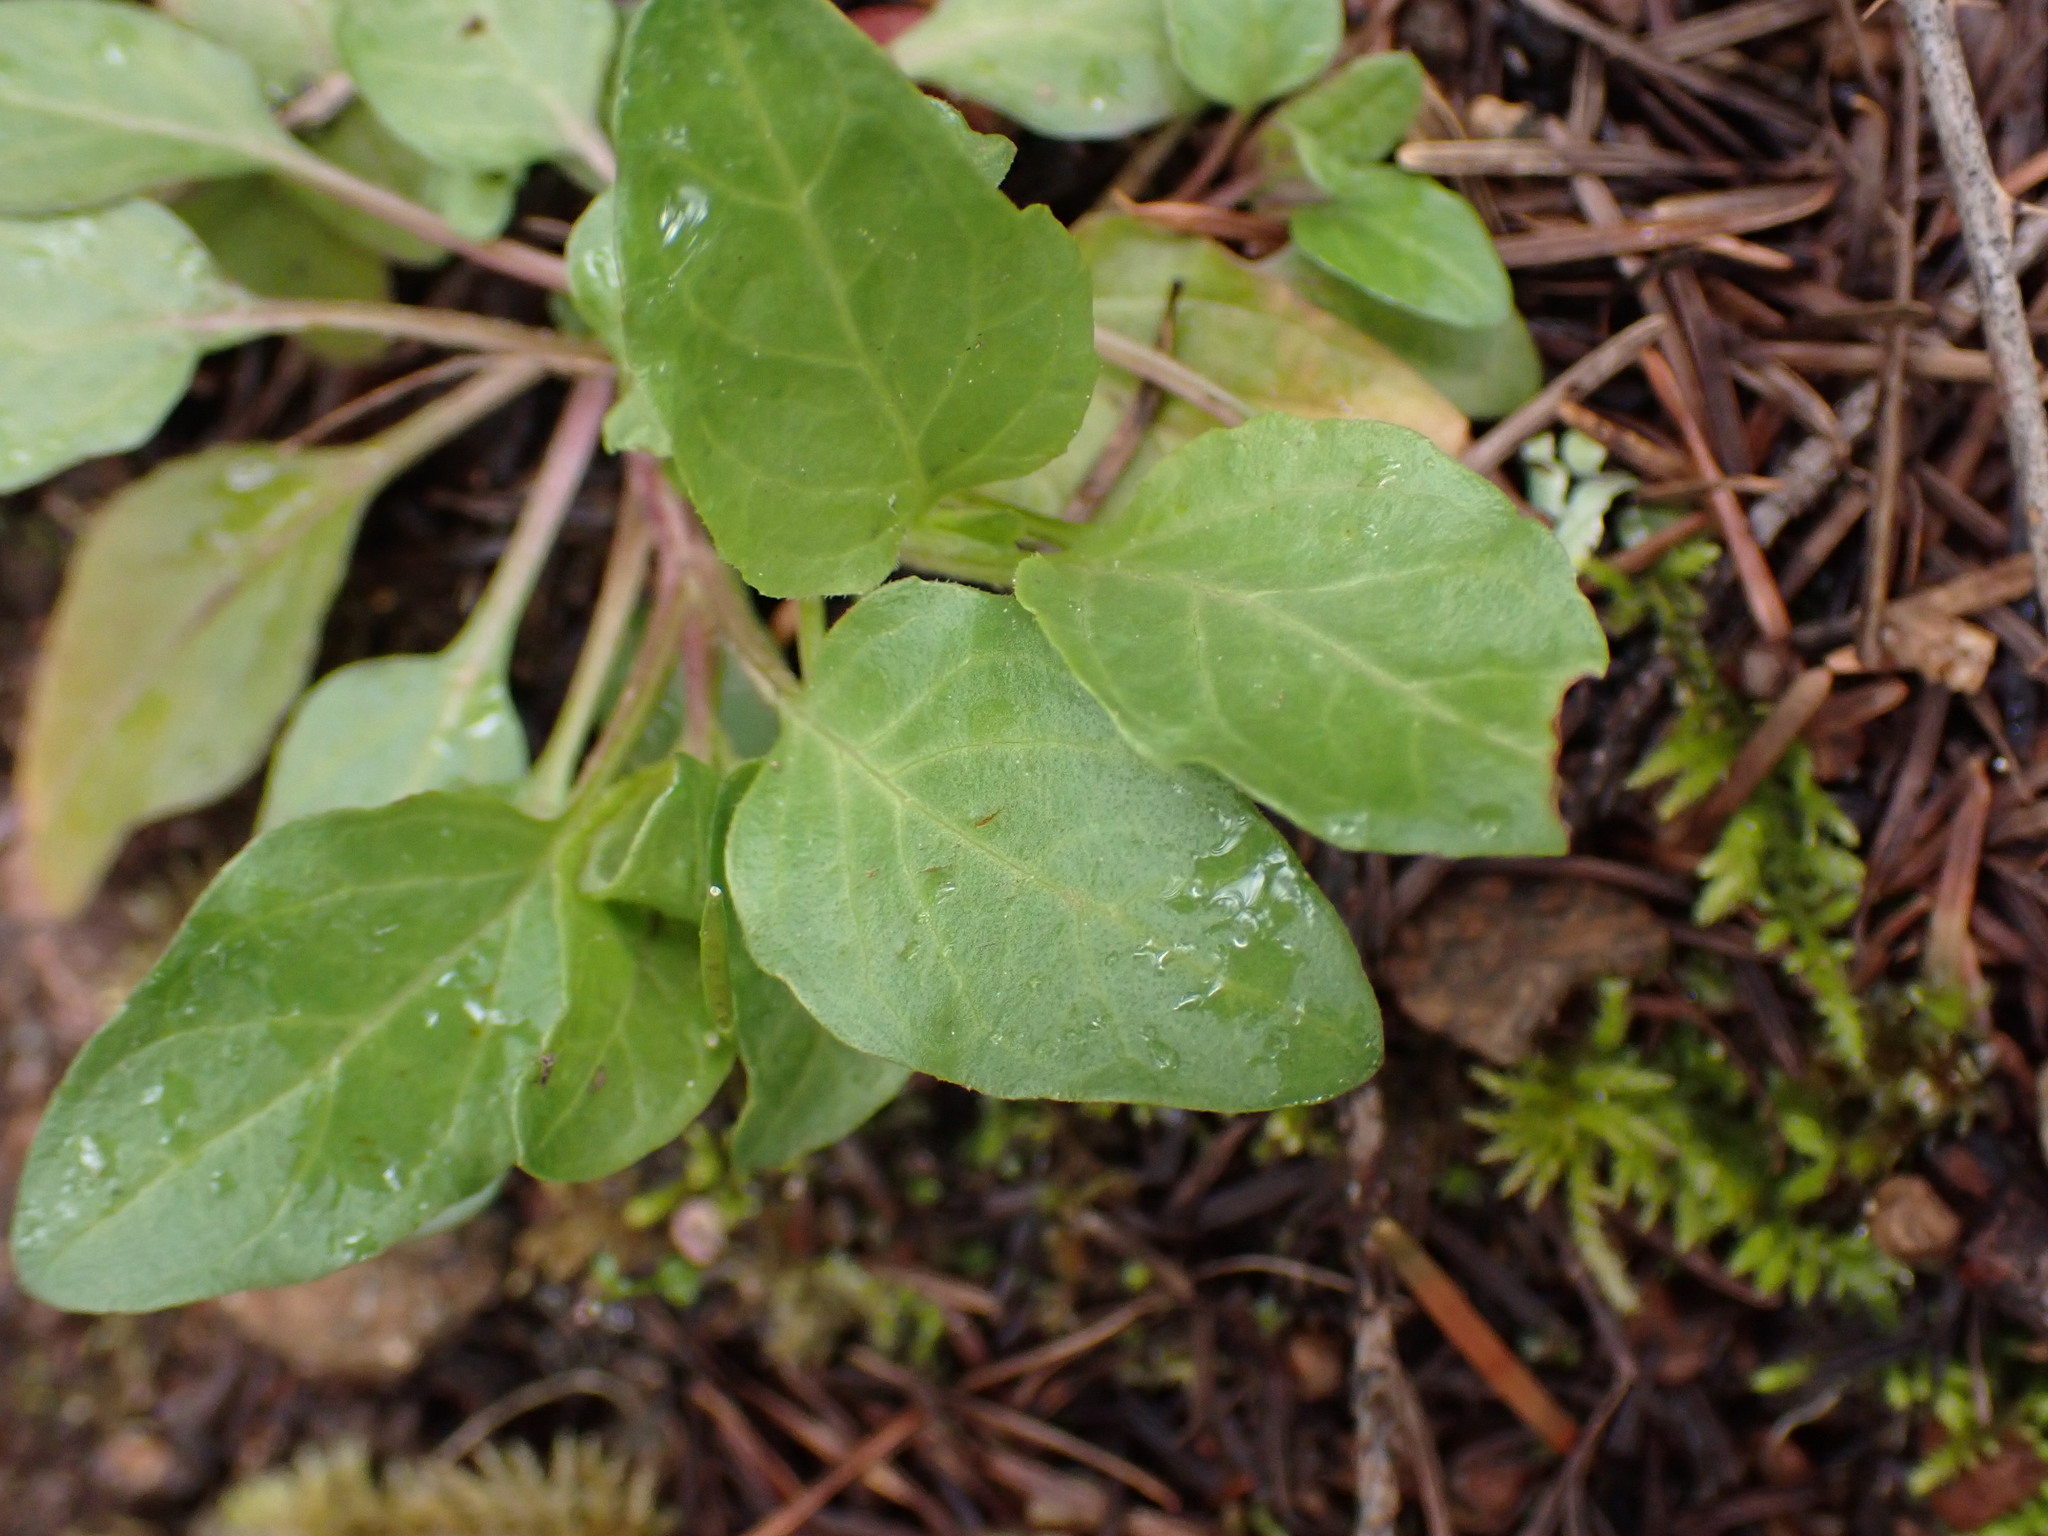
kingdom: Plantae
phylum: Tracheophyta
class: Magnoliopsida
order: Lamiales
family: Lamiaceae
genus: Prunella
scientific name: Prunella vulgaris
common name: Heal-all
